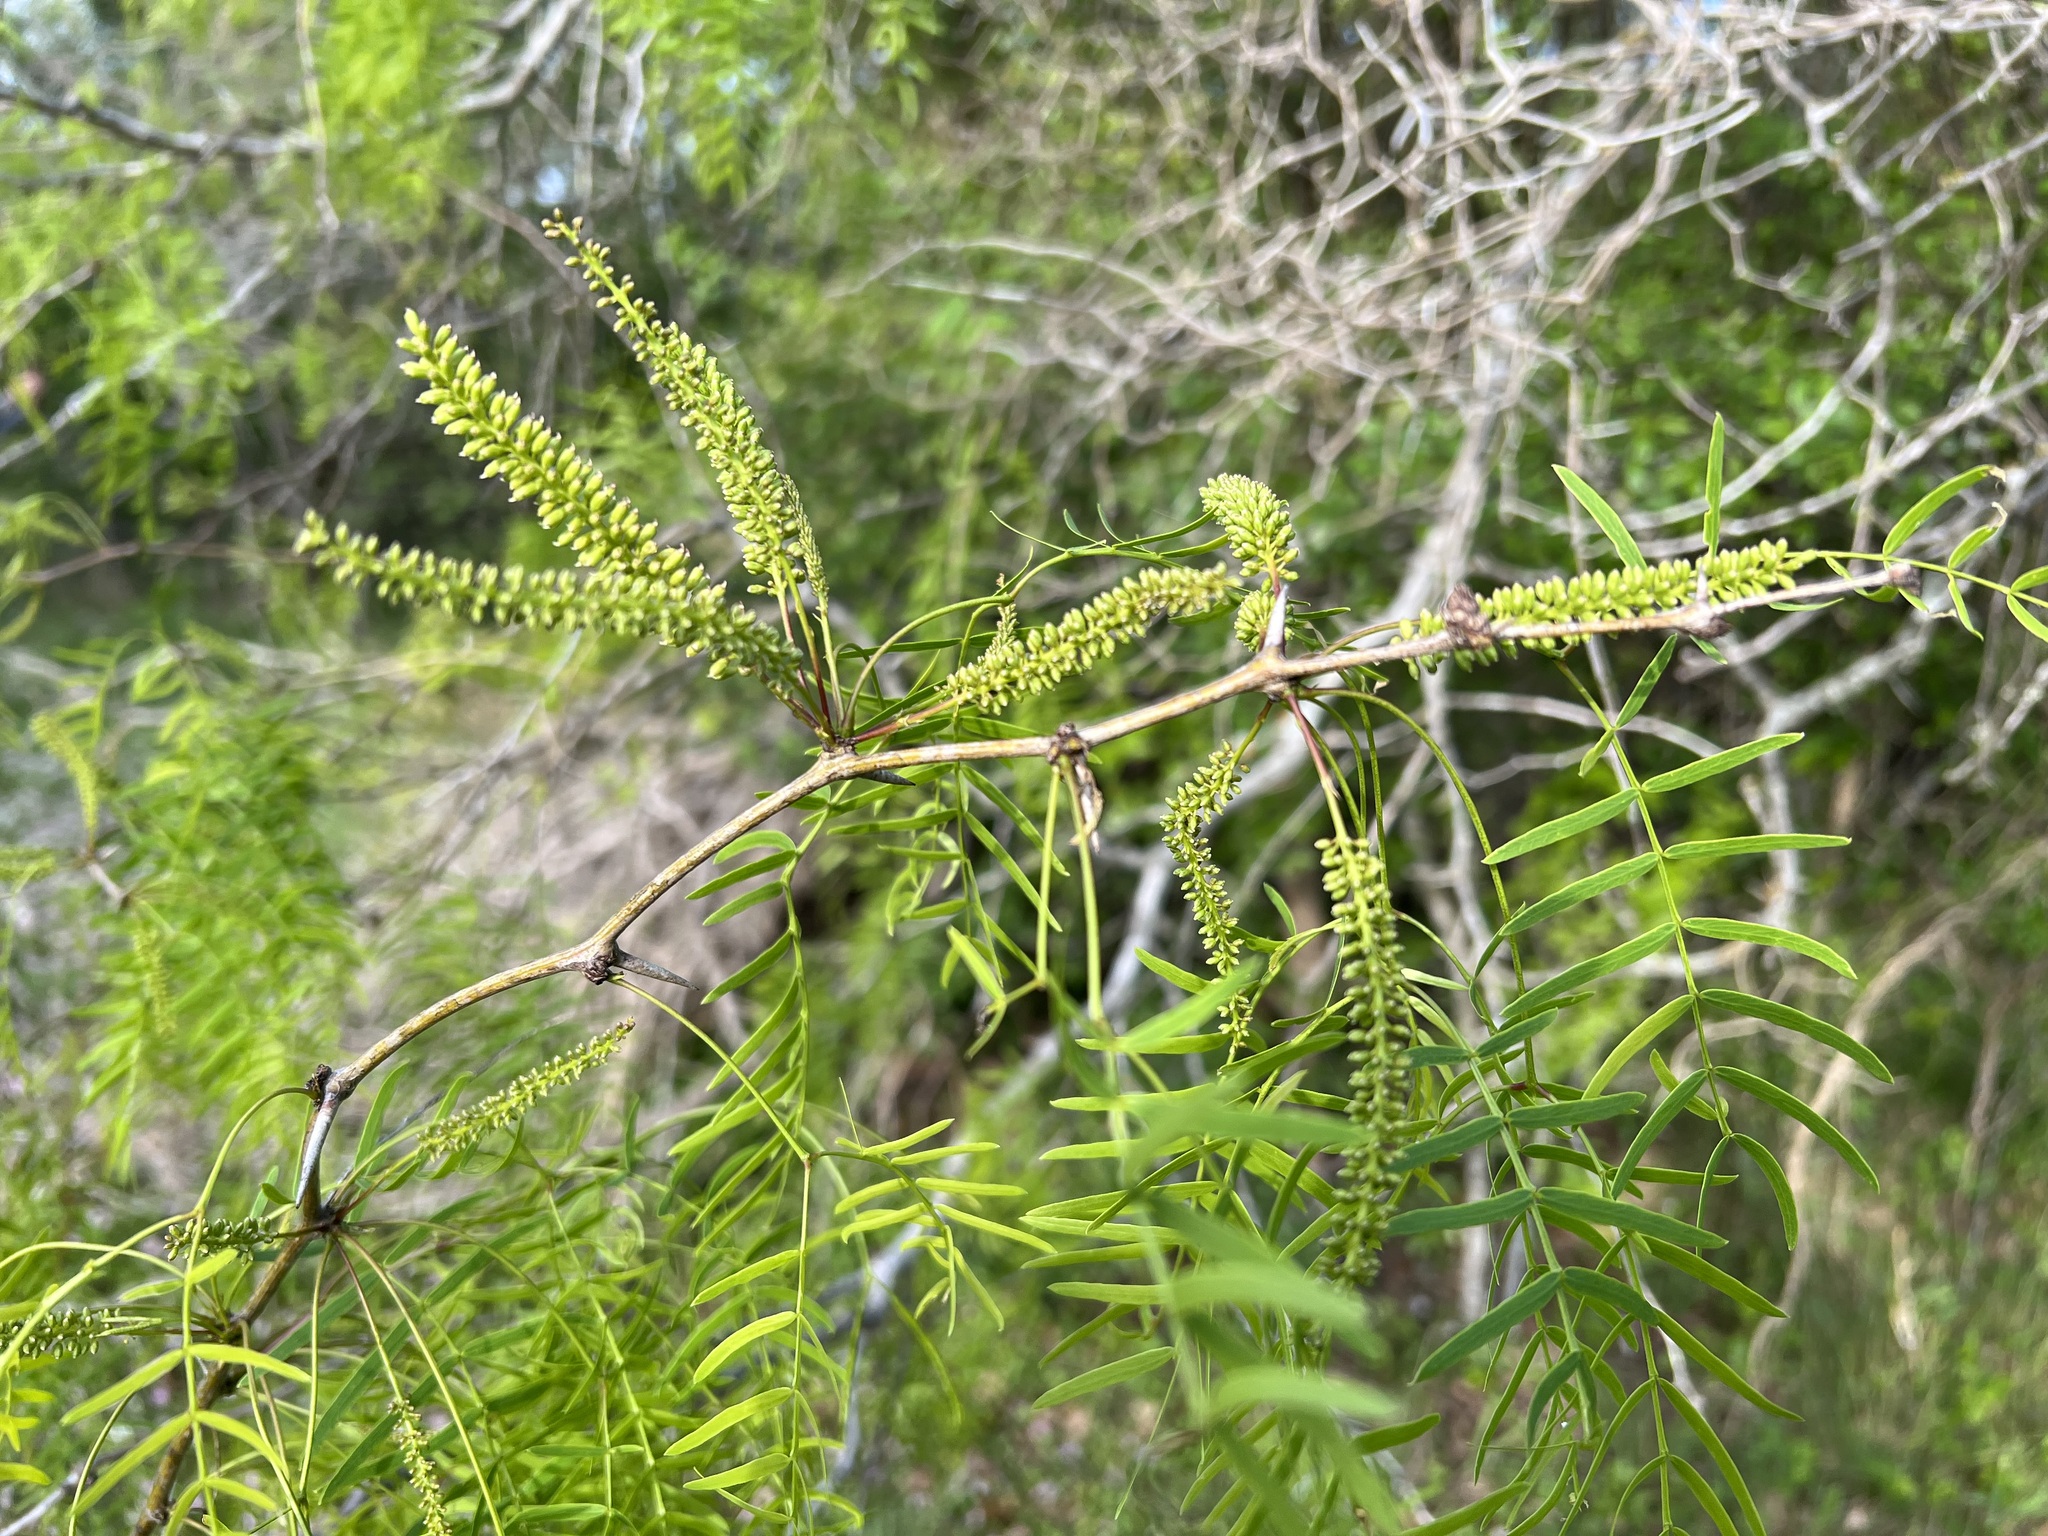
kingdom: Plantae
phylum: Tracheophyta
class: Magnoliopsida
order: Fabales
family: Fabaceae
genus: Prosopis
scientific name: Prosopis glandulosa
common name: Honey mesquite
